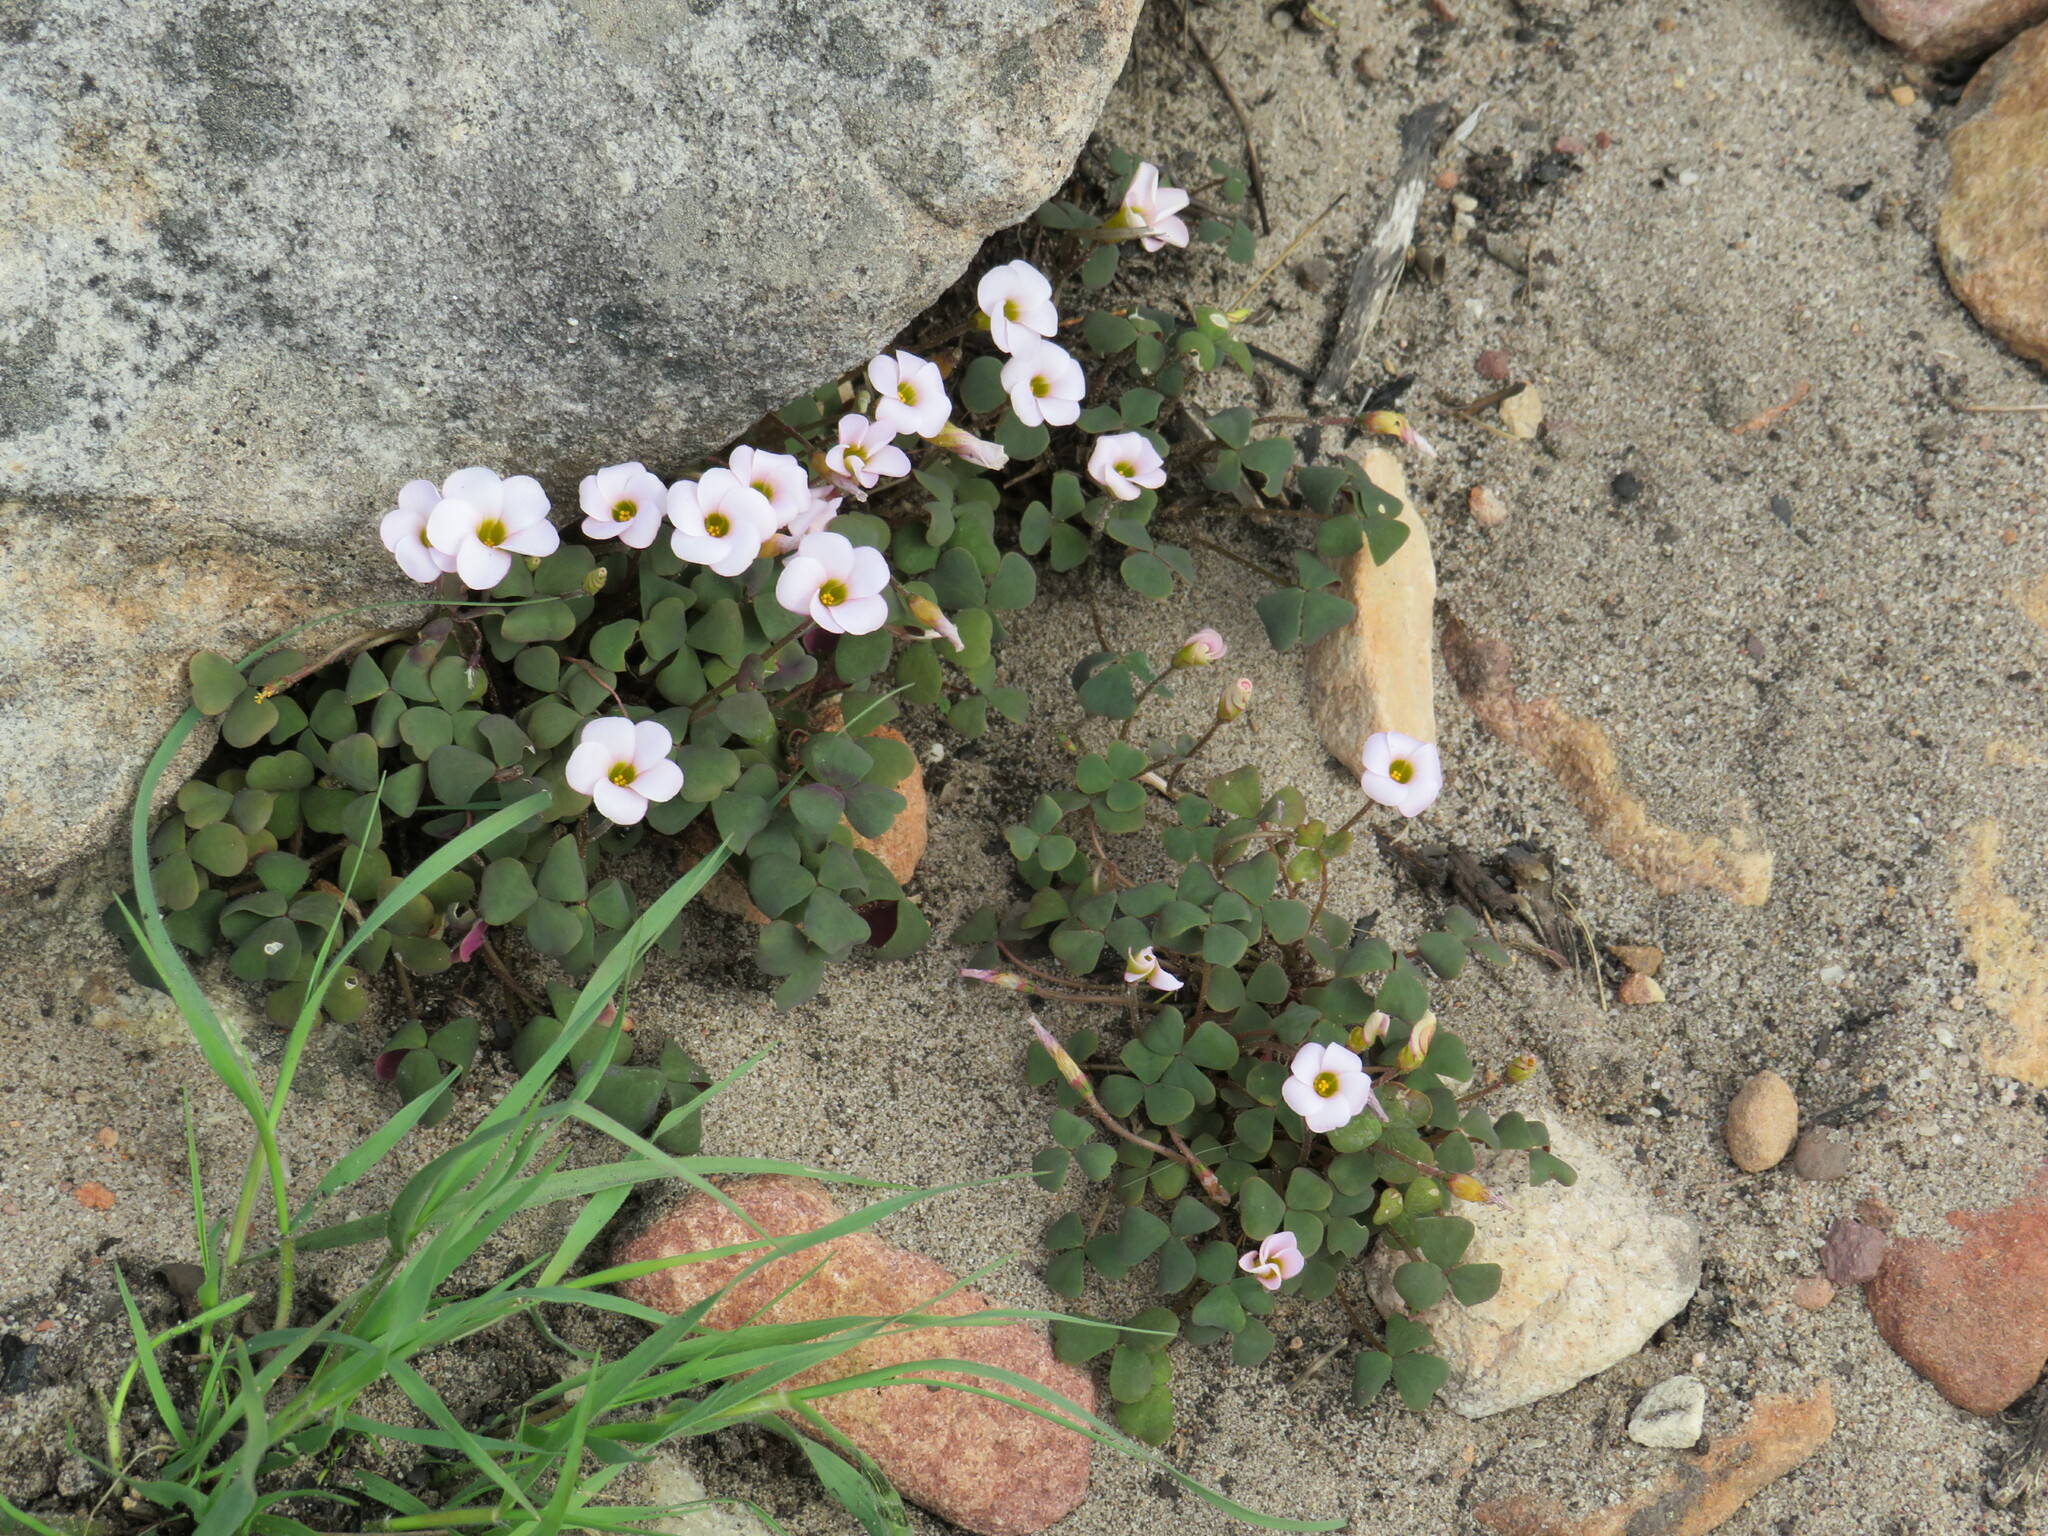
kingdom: Plantae
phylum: Tracheophyta
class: Magnoliopsida
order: Oxalidales
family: Oxalidaceae
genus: Oxalis
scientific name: Oxalis punctata
